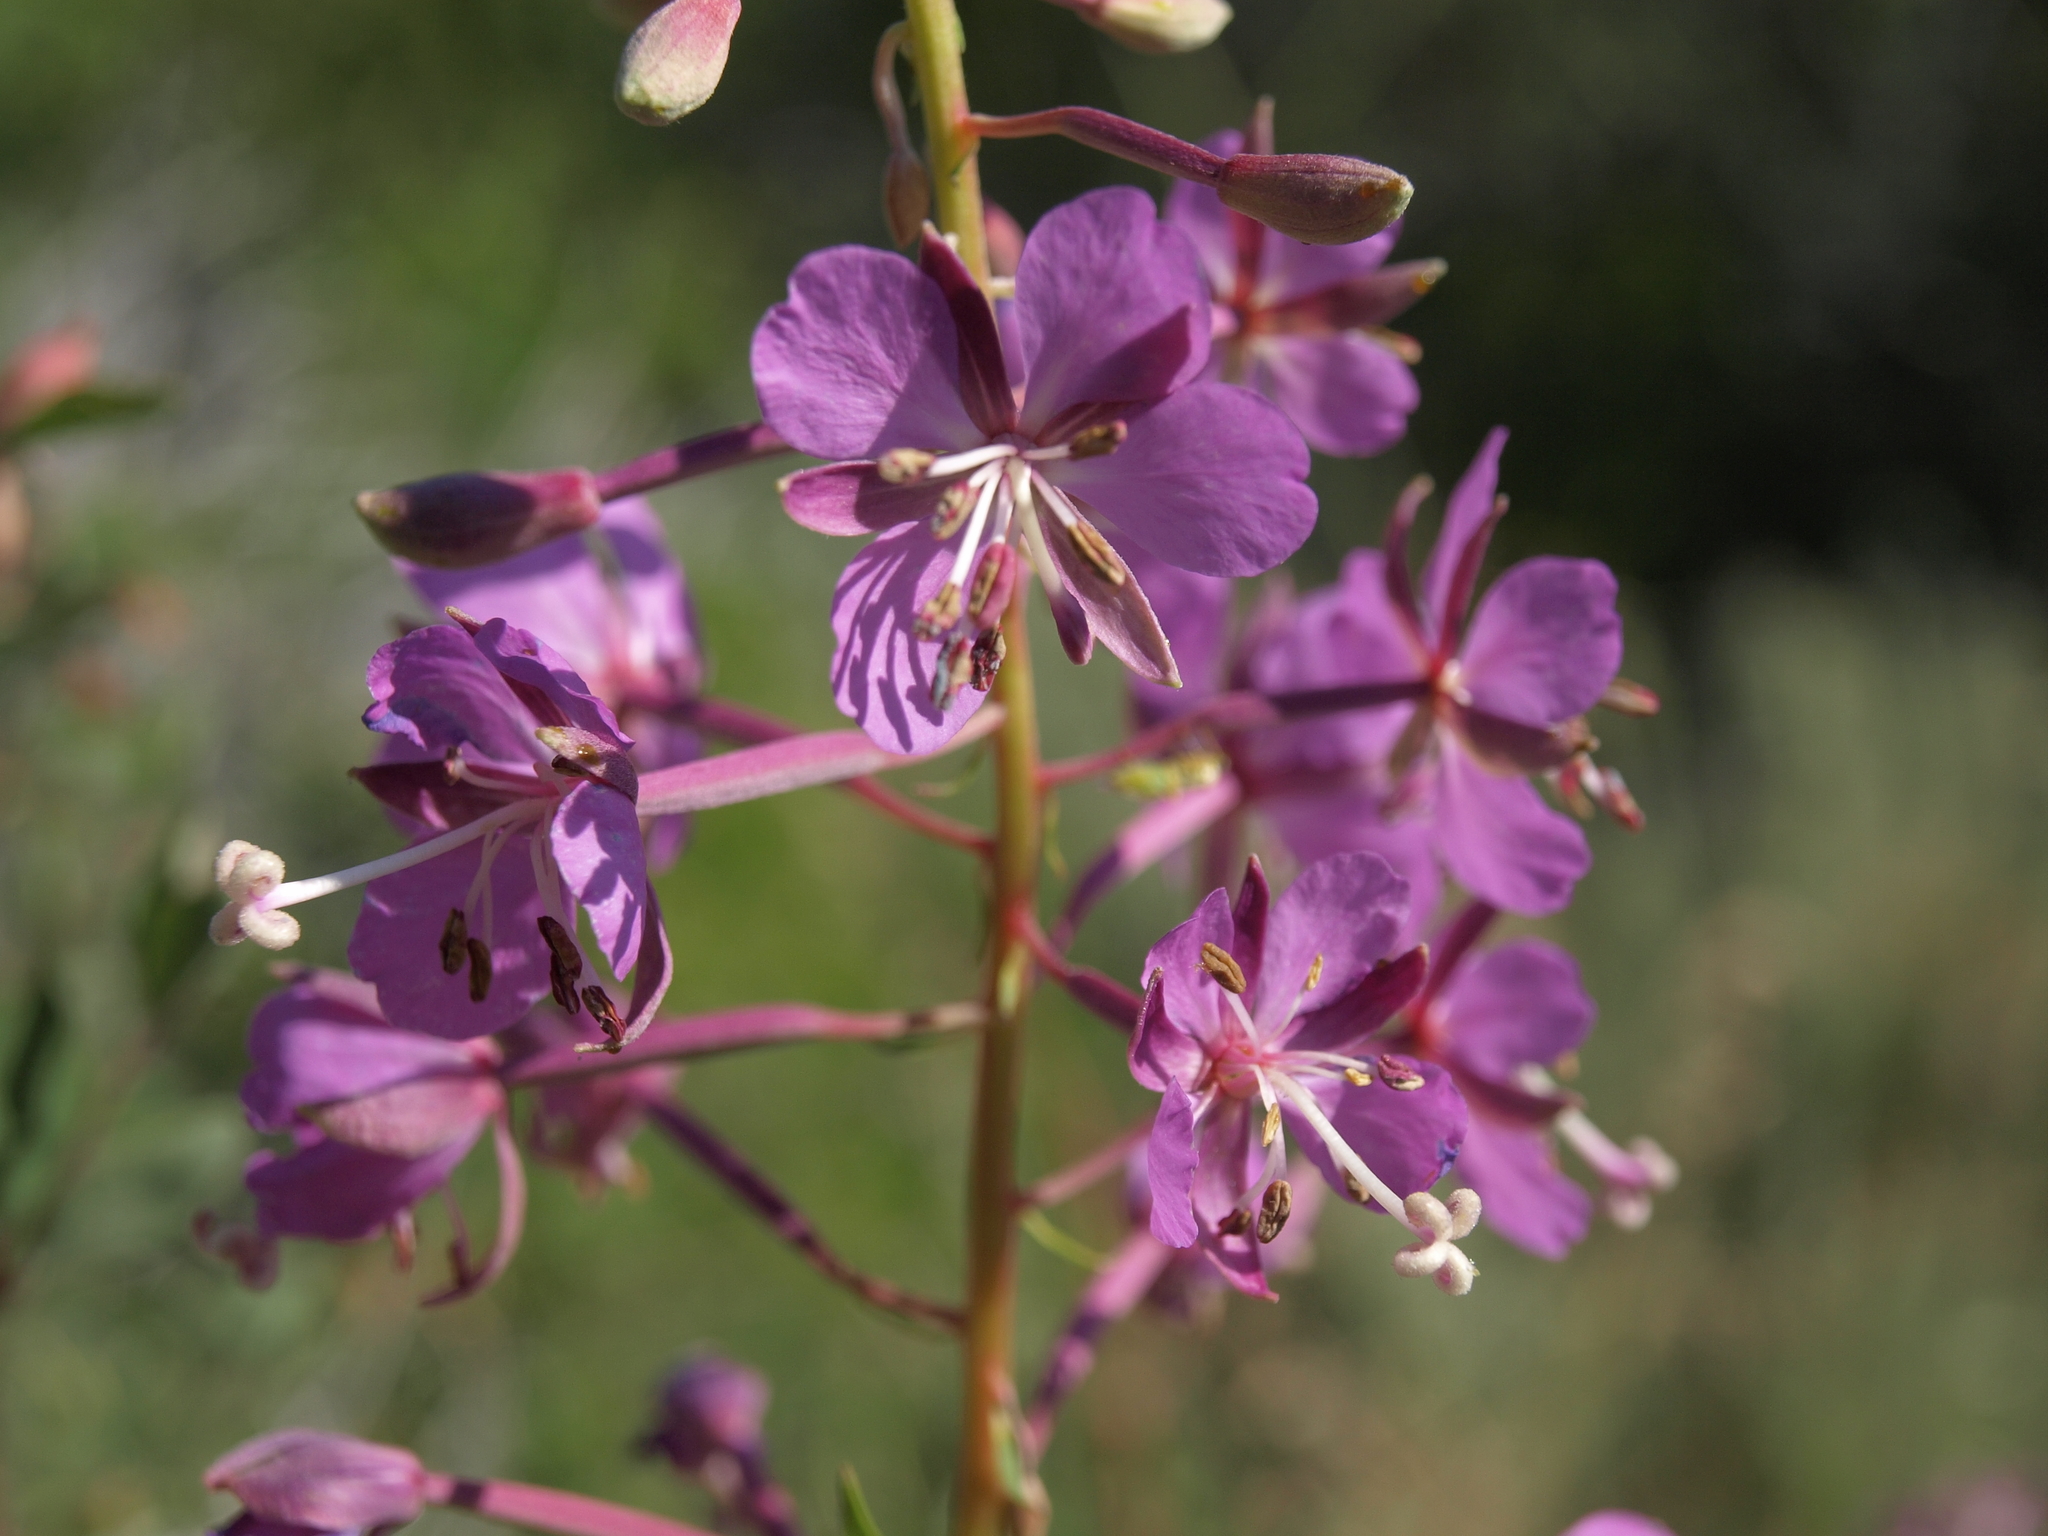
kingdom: Plantae
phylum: Tracheophyta
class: Magnoliopsida
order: Myrtales
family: Onagraceae
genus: Chamaenerion
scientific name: Chamaenerion angustifolium
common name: Fireweed
